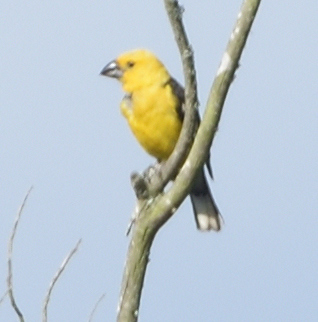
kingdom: Animalia
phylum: Chordata
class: Aves
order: Passeriformes
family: Cardinalidae
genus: Pheucticus
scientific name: Pheucticus chrysogaster
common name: Golden grosbeak
